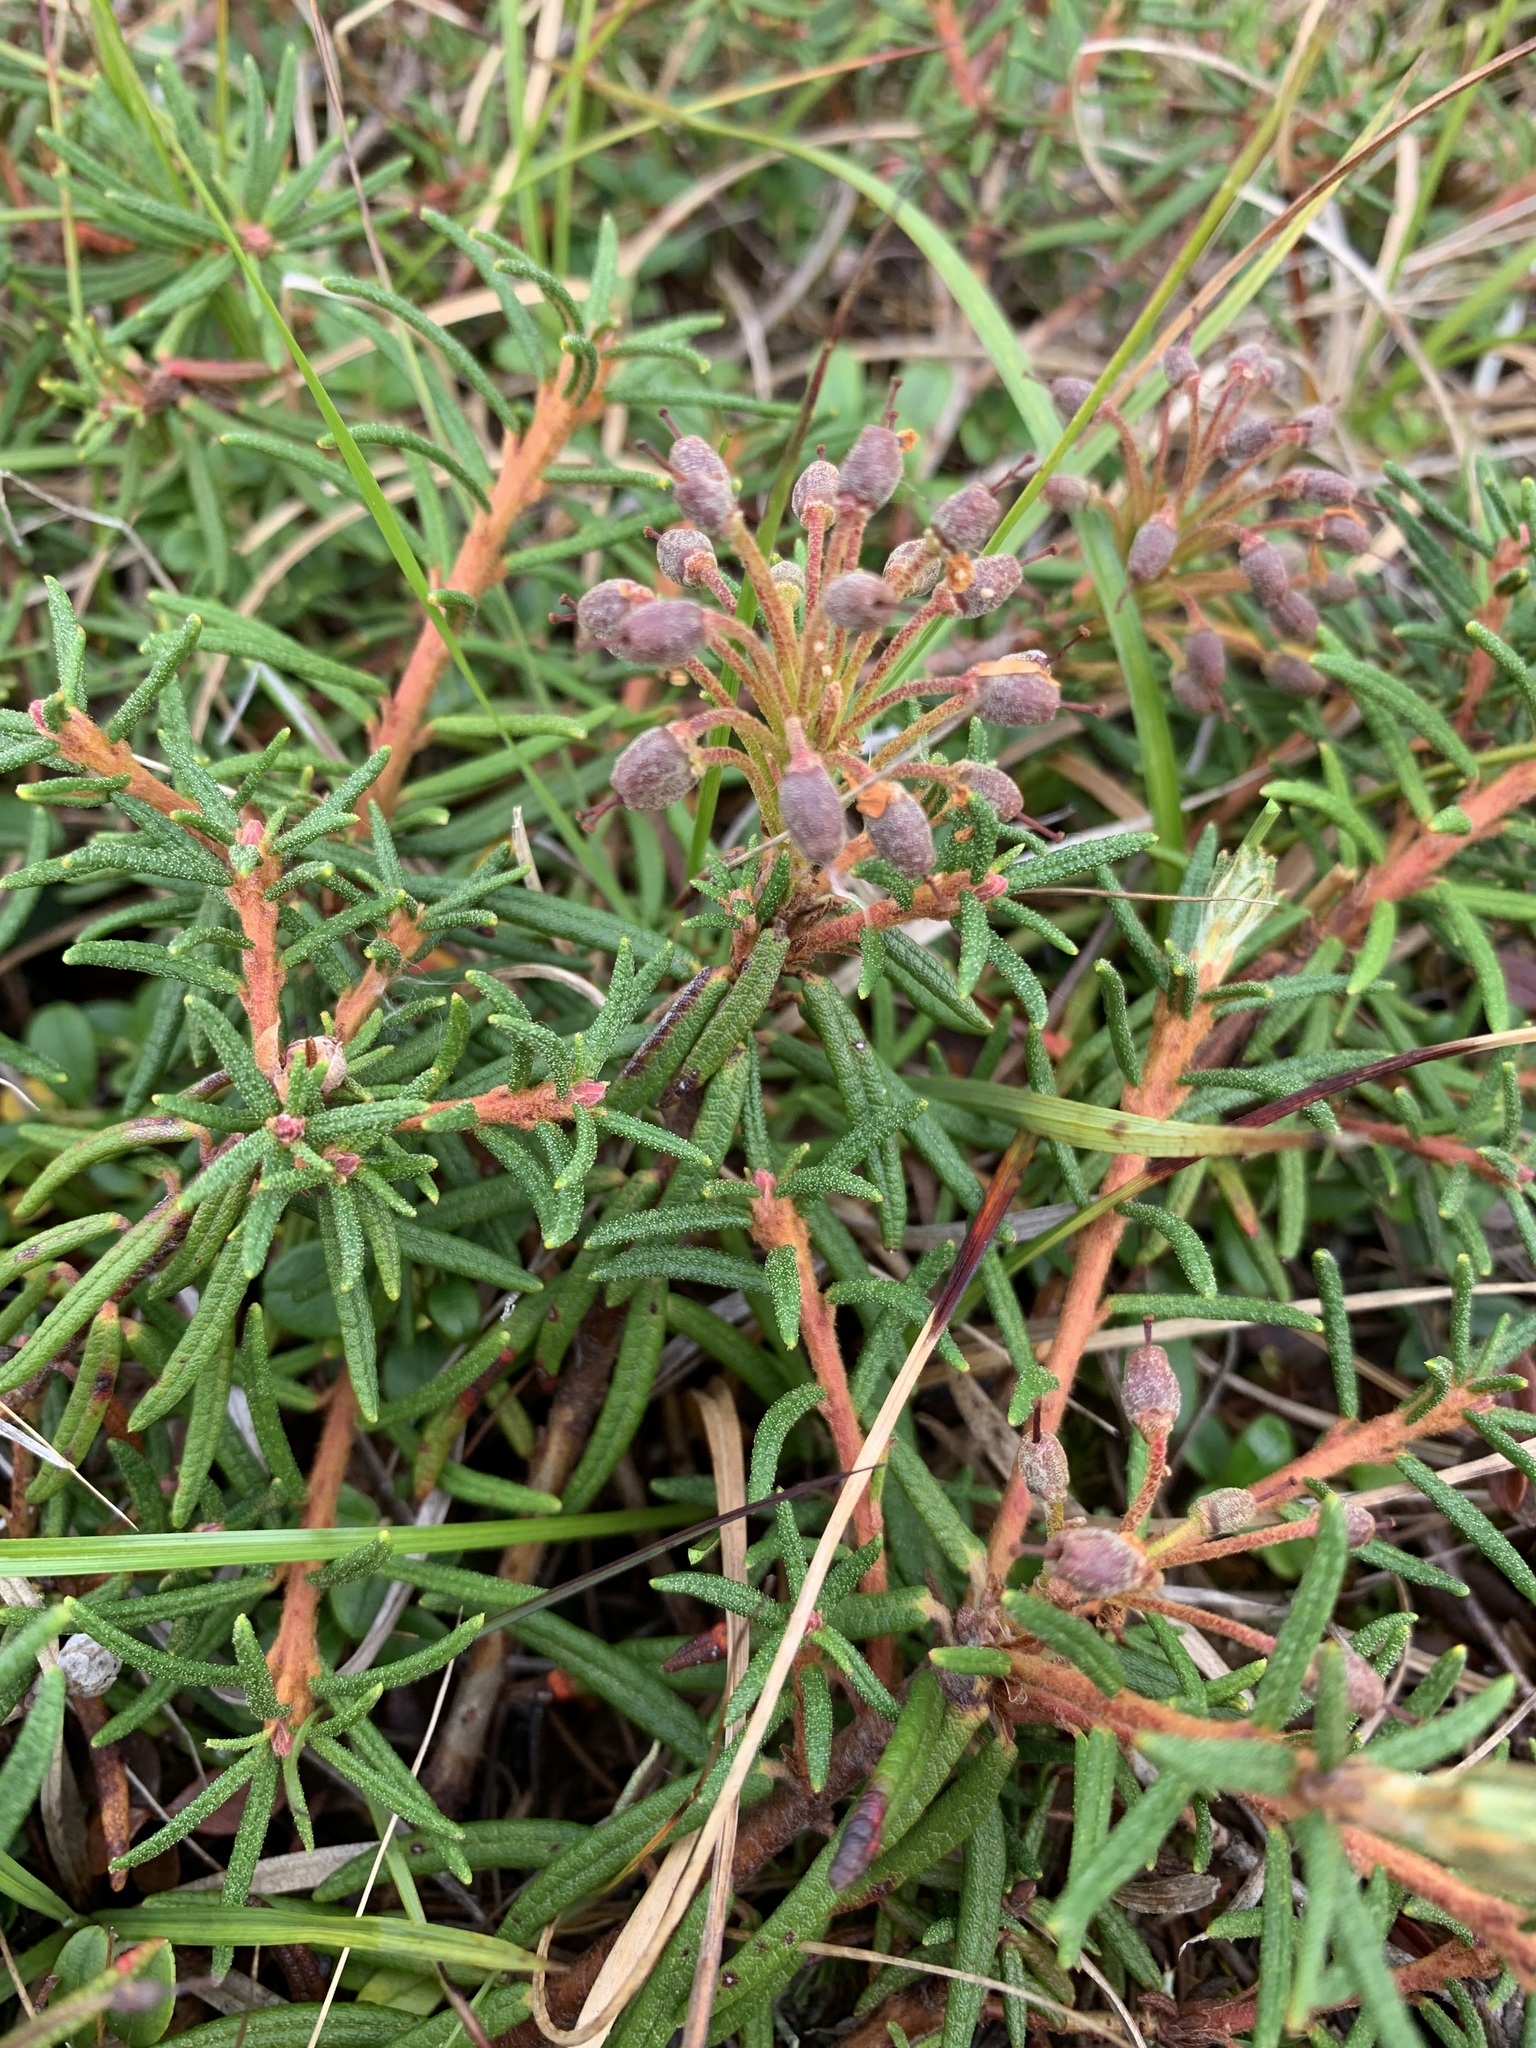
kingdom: Plantae
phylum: Tracheophyta
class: Magnoliopsida
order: Ericales
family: Ericaceae
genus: Rhododendron
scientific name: Rhododendron tomentosum
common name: Marsh labrador tea
